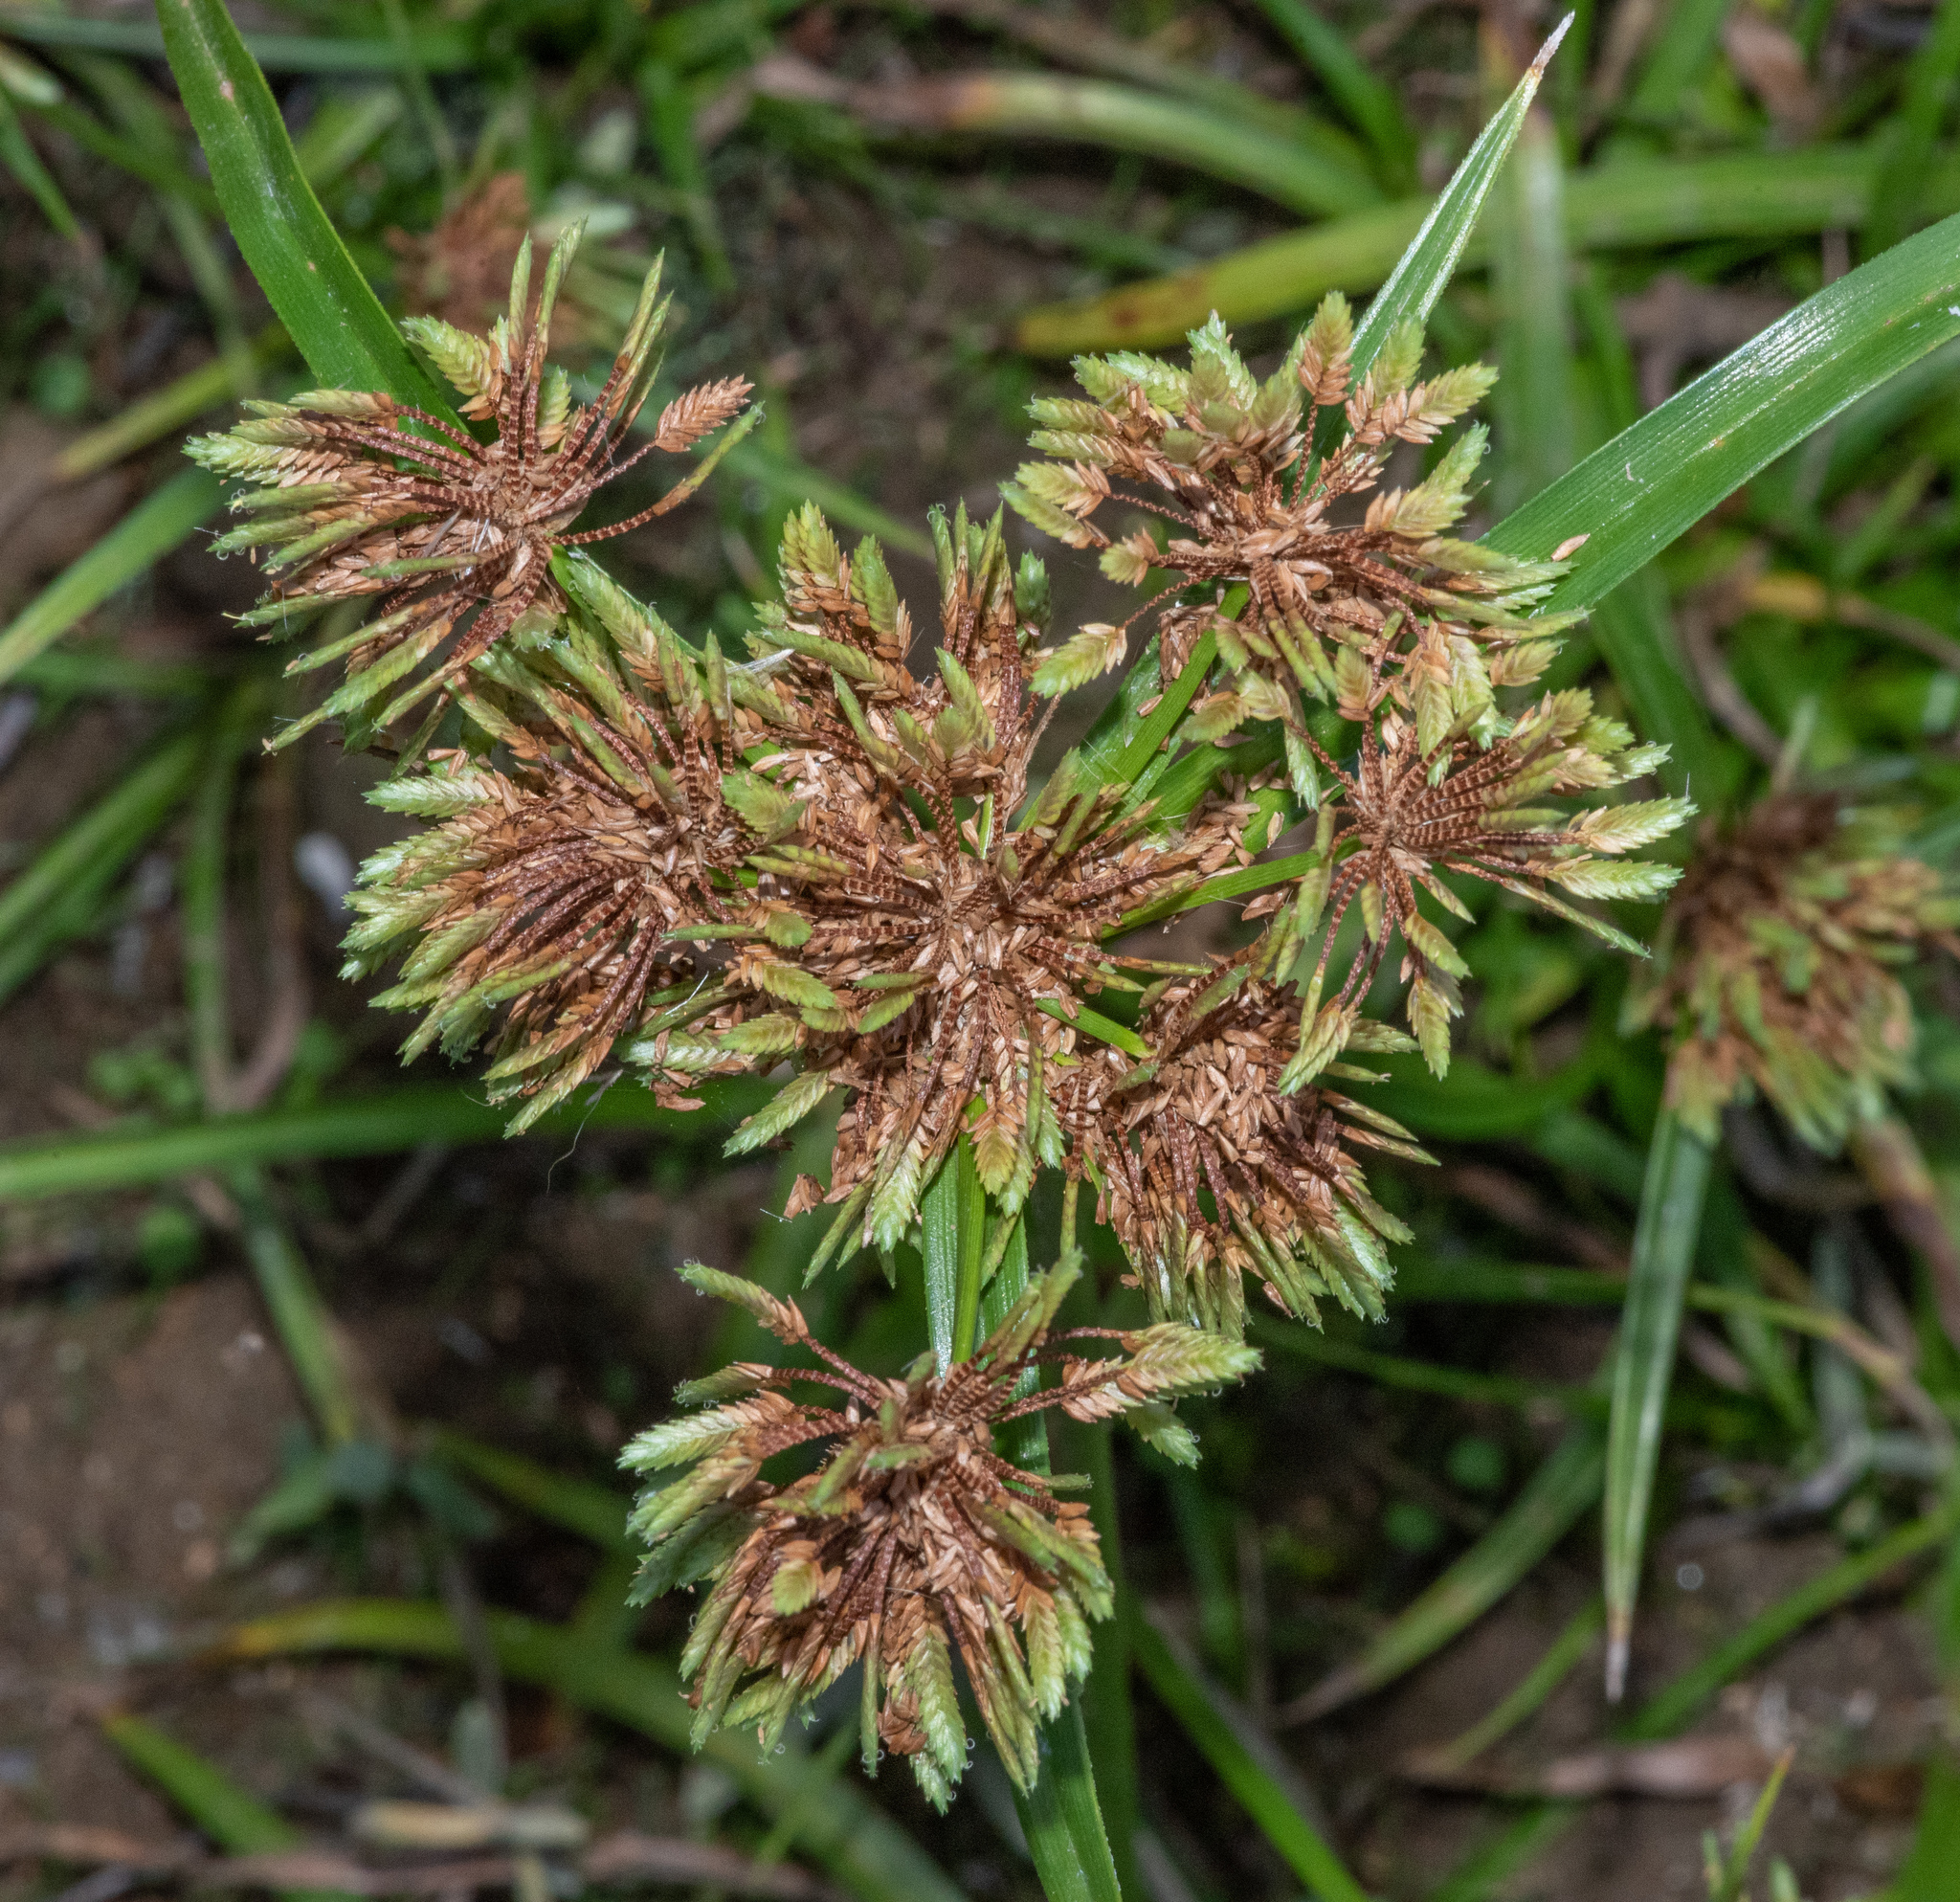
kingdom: Plantae
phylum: Tracheophyta
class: Liliopsida
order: Poales
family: Cyperaceae
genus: Cyperus
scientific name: Cyperus eragrostis
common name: Tall flatsedge
